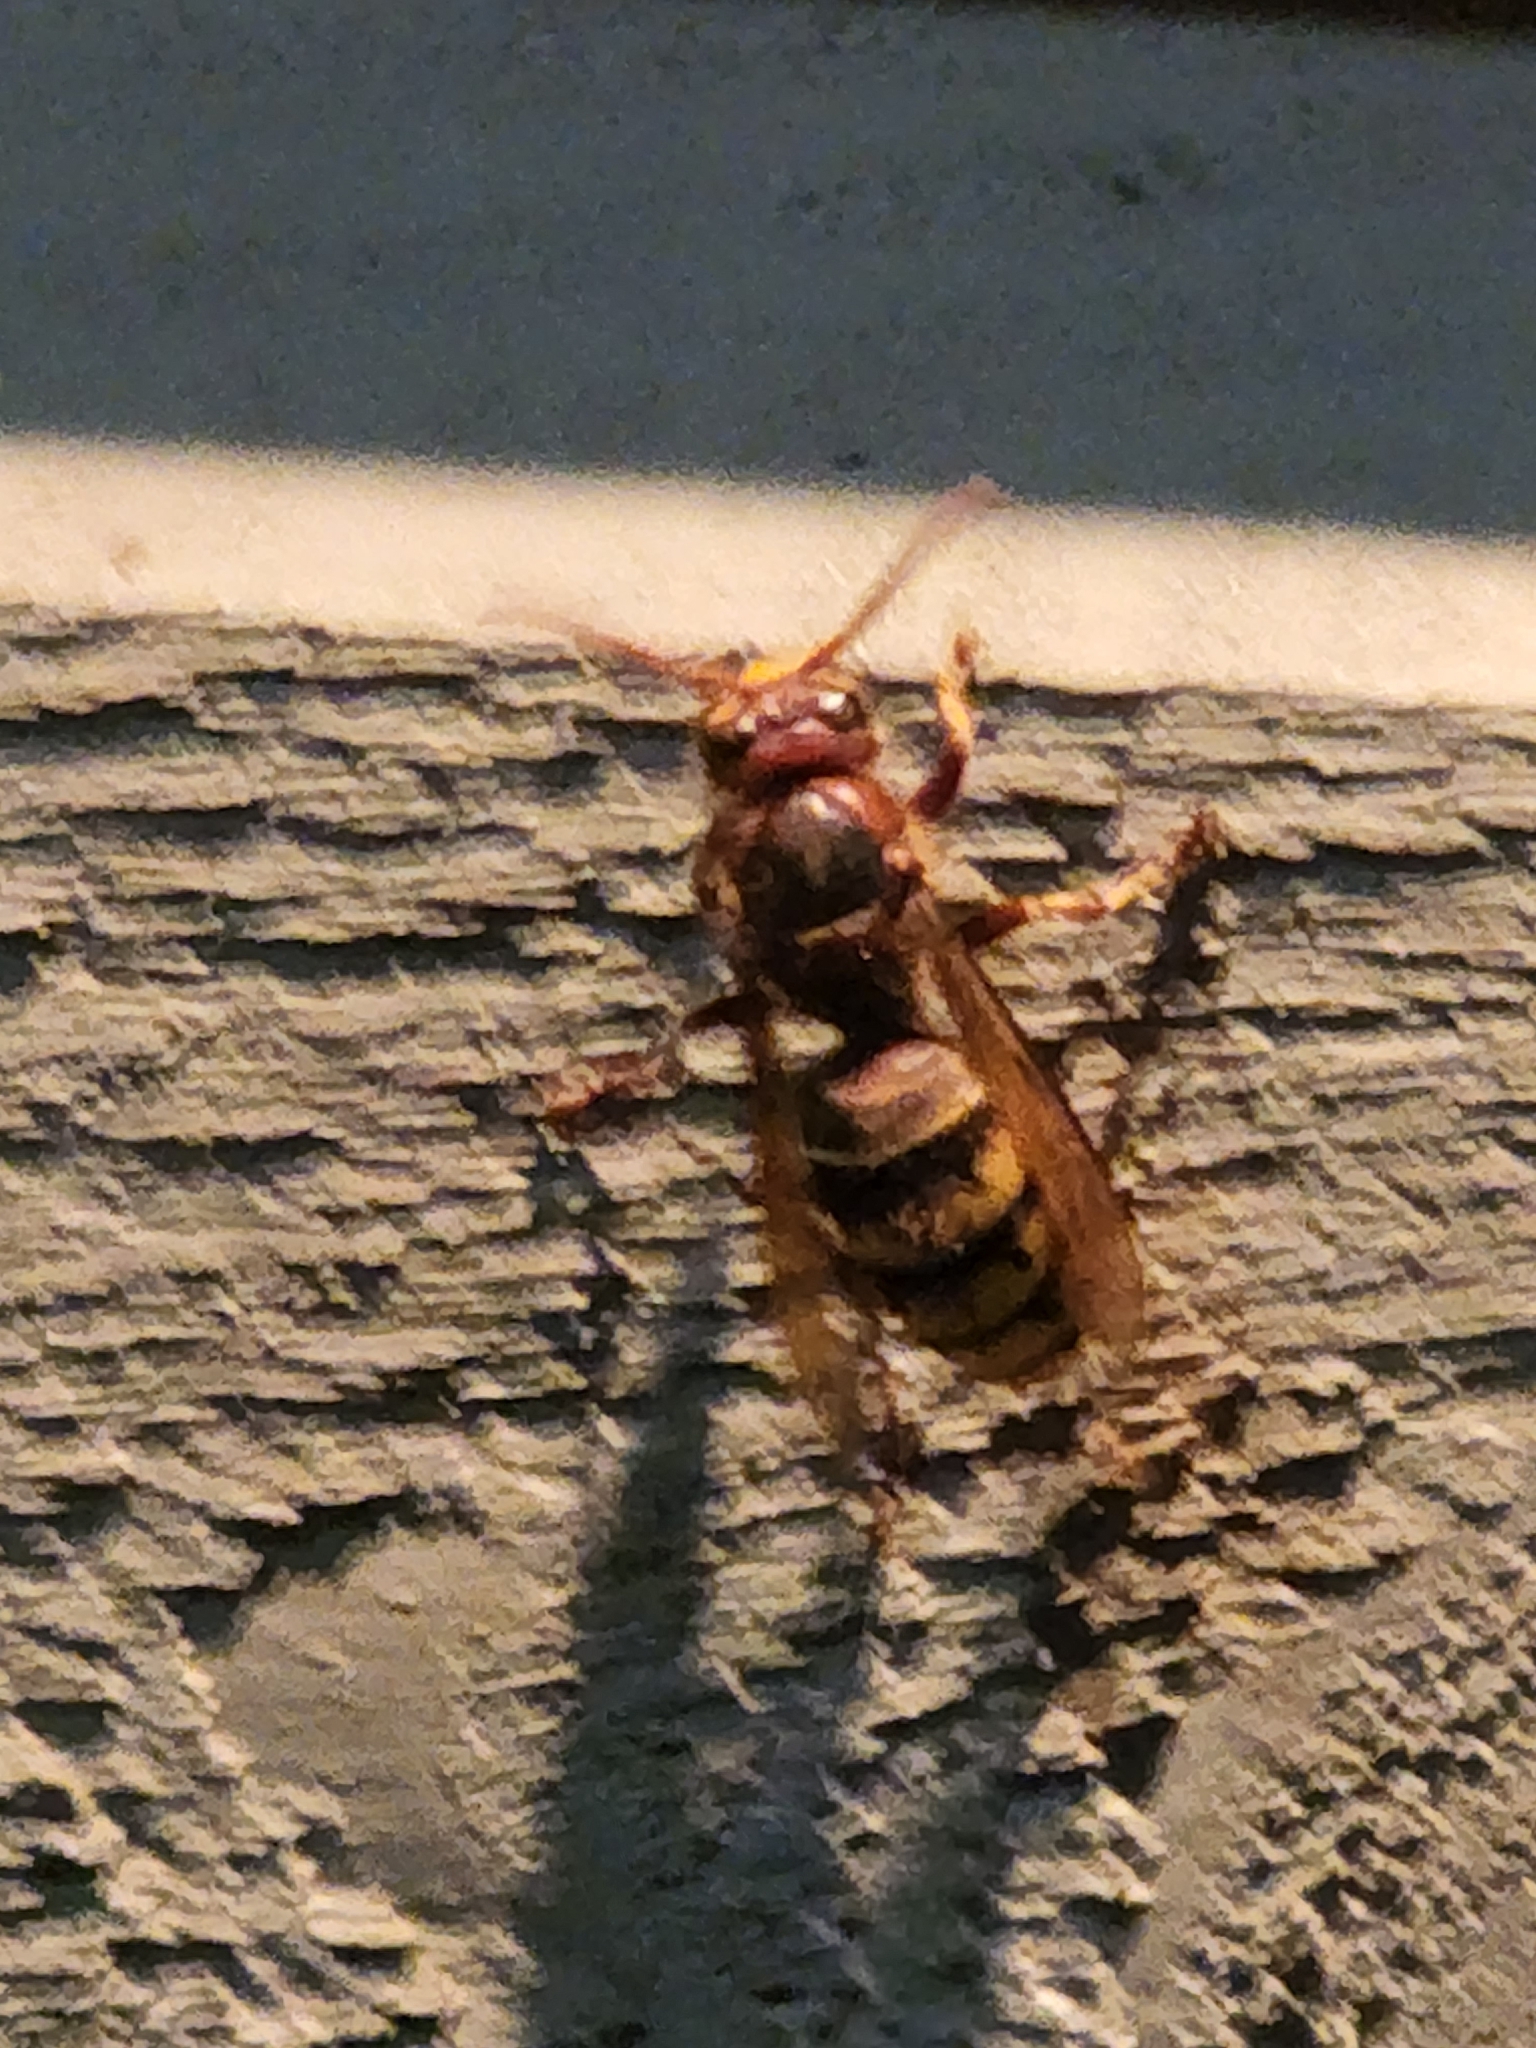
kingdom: Animalia
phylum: Arthropoda
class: Insecta
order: Hymenoptera
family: Vespidae
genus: Vespa
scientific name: Vespa crabro
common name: Hornet
